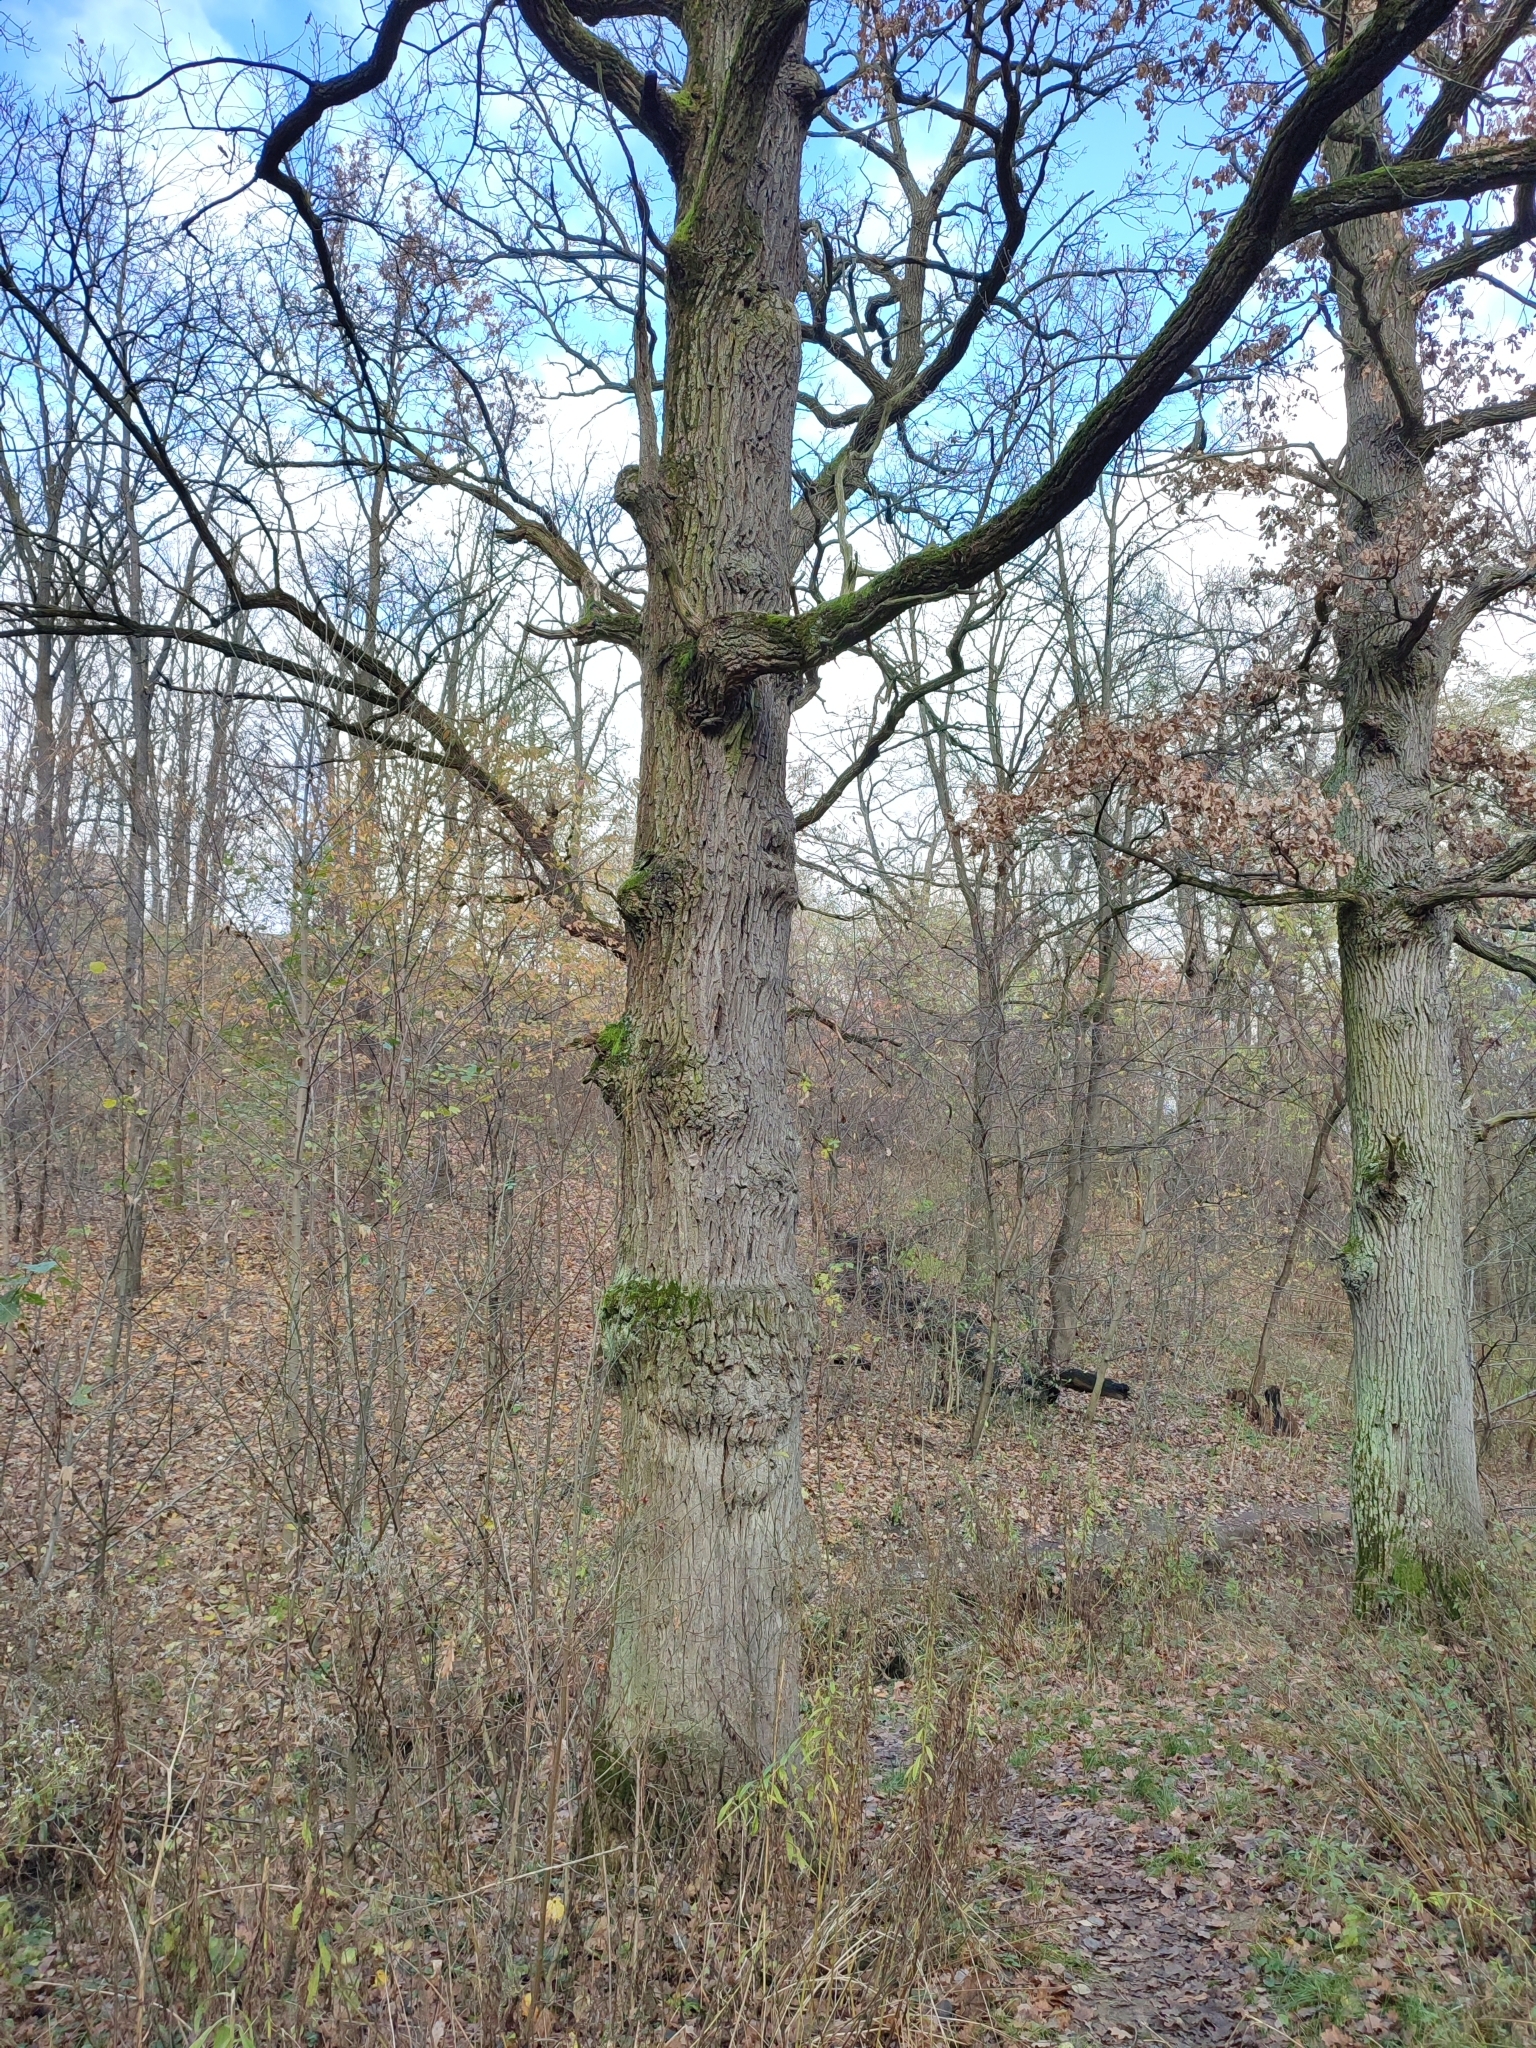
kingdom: Plantae
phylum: Tracheophyta
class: Magnoliopsida
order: Fagales
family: Fagaceae
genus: Quercus
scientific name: Quercus robur
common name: Pedunculate oak
